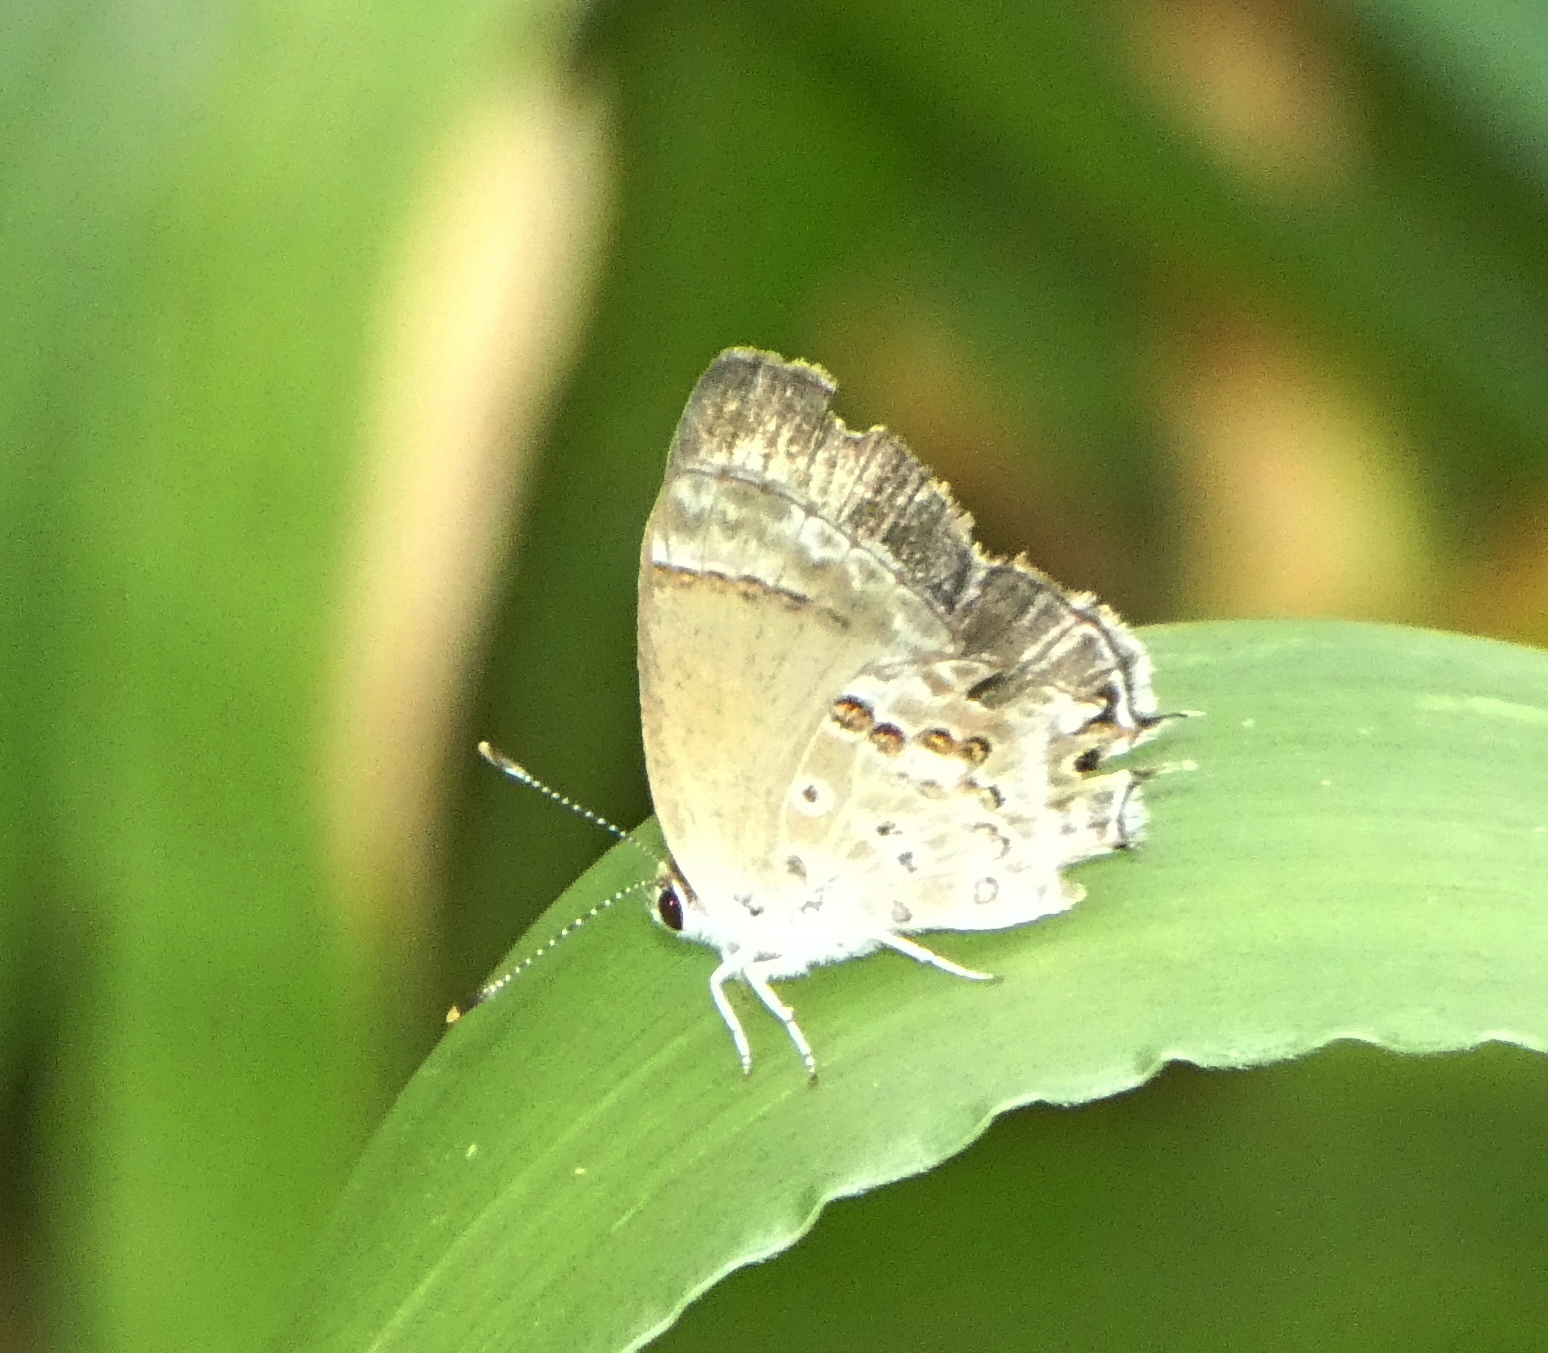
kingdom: Animalia
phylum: Arthropoda
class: Insecta
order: Lepidoptera
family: Lycaenidae
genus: Strymon
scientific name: Strymon astiocha
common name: Gray-spotted scrub-hairstreak
